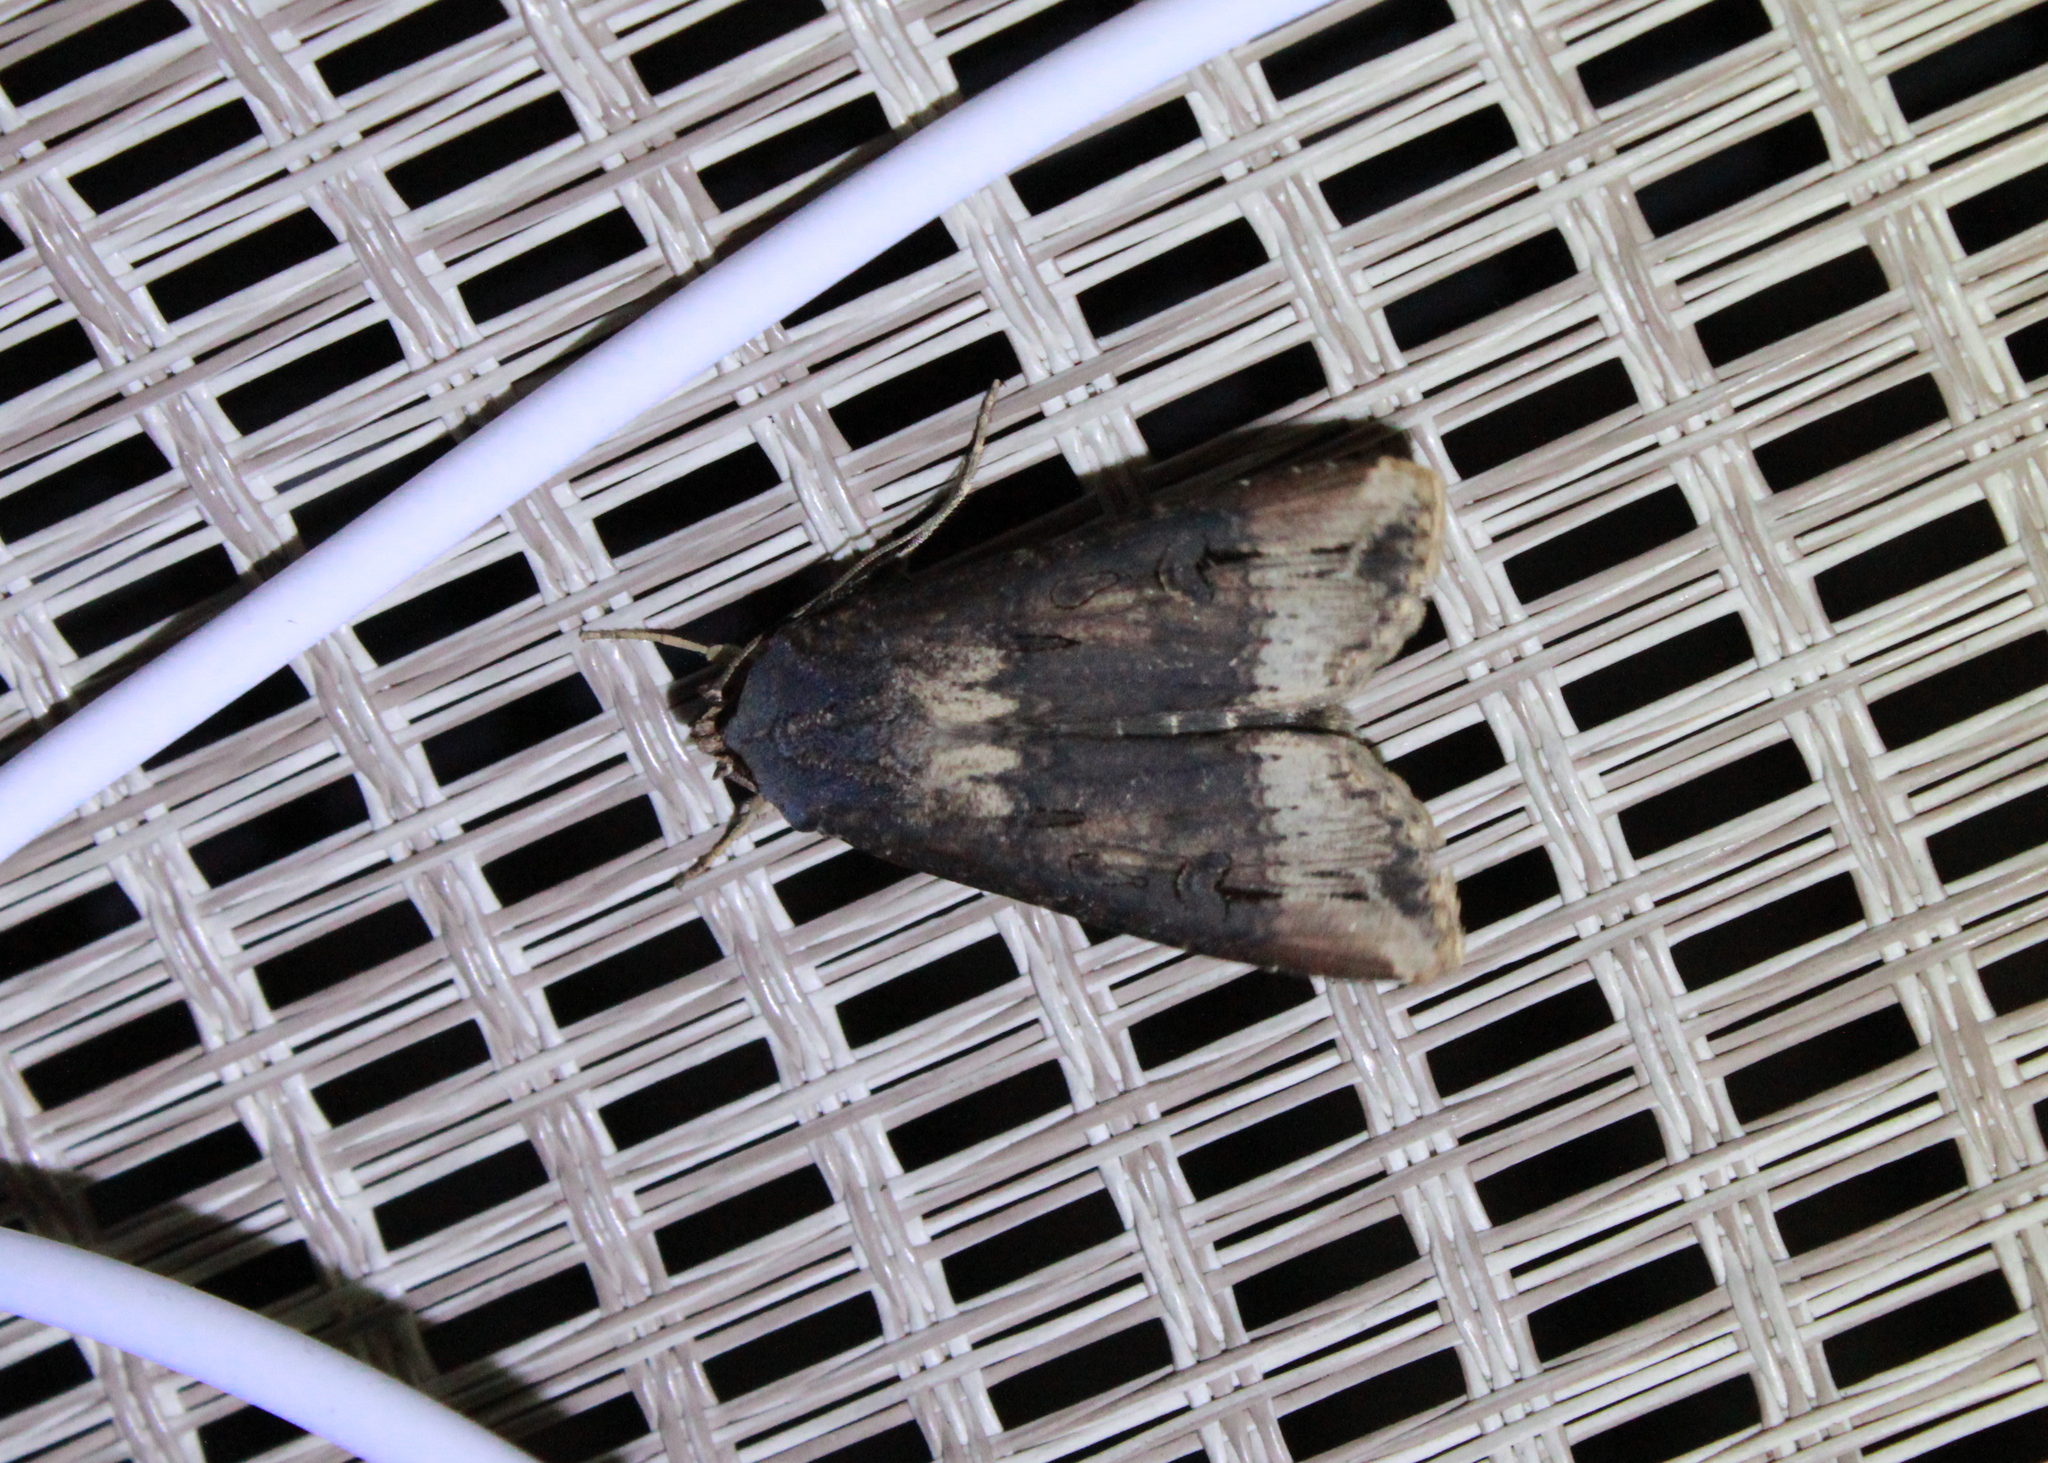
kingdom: Animalia
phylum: Arthropoda
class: Insecta
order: Lepidoptera
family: Noctuidae
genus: Agrotis
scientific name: Agrotis ipsilon
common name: Dark sword-grass
